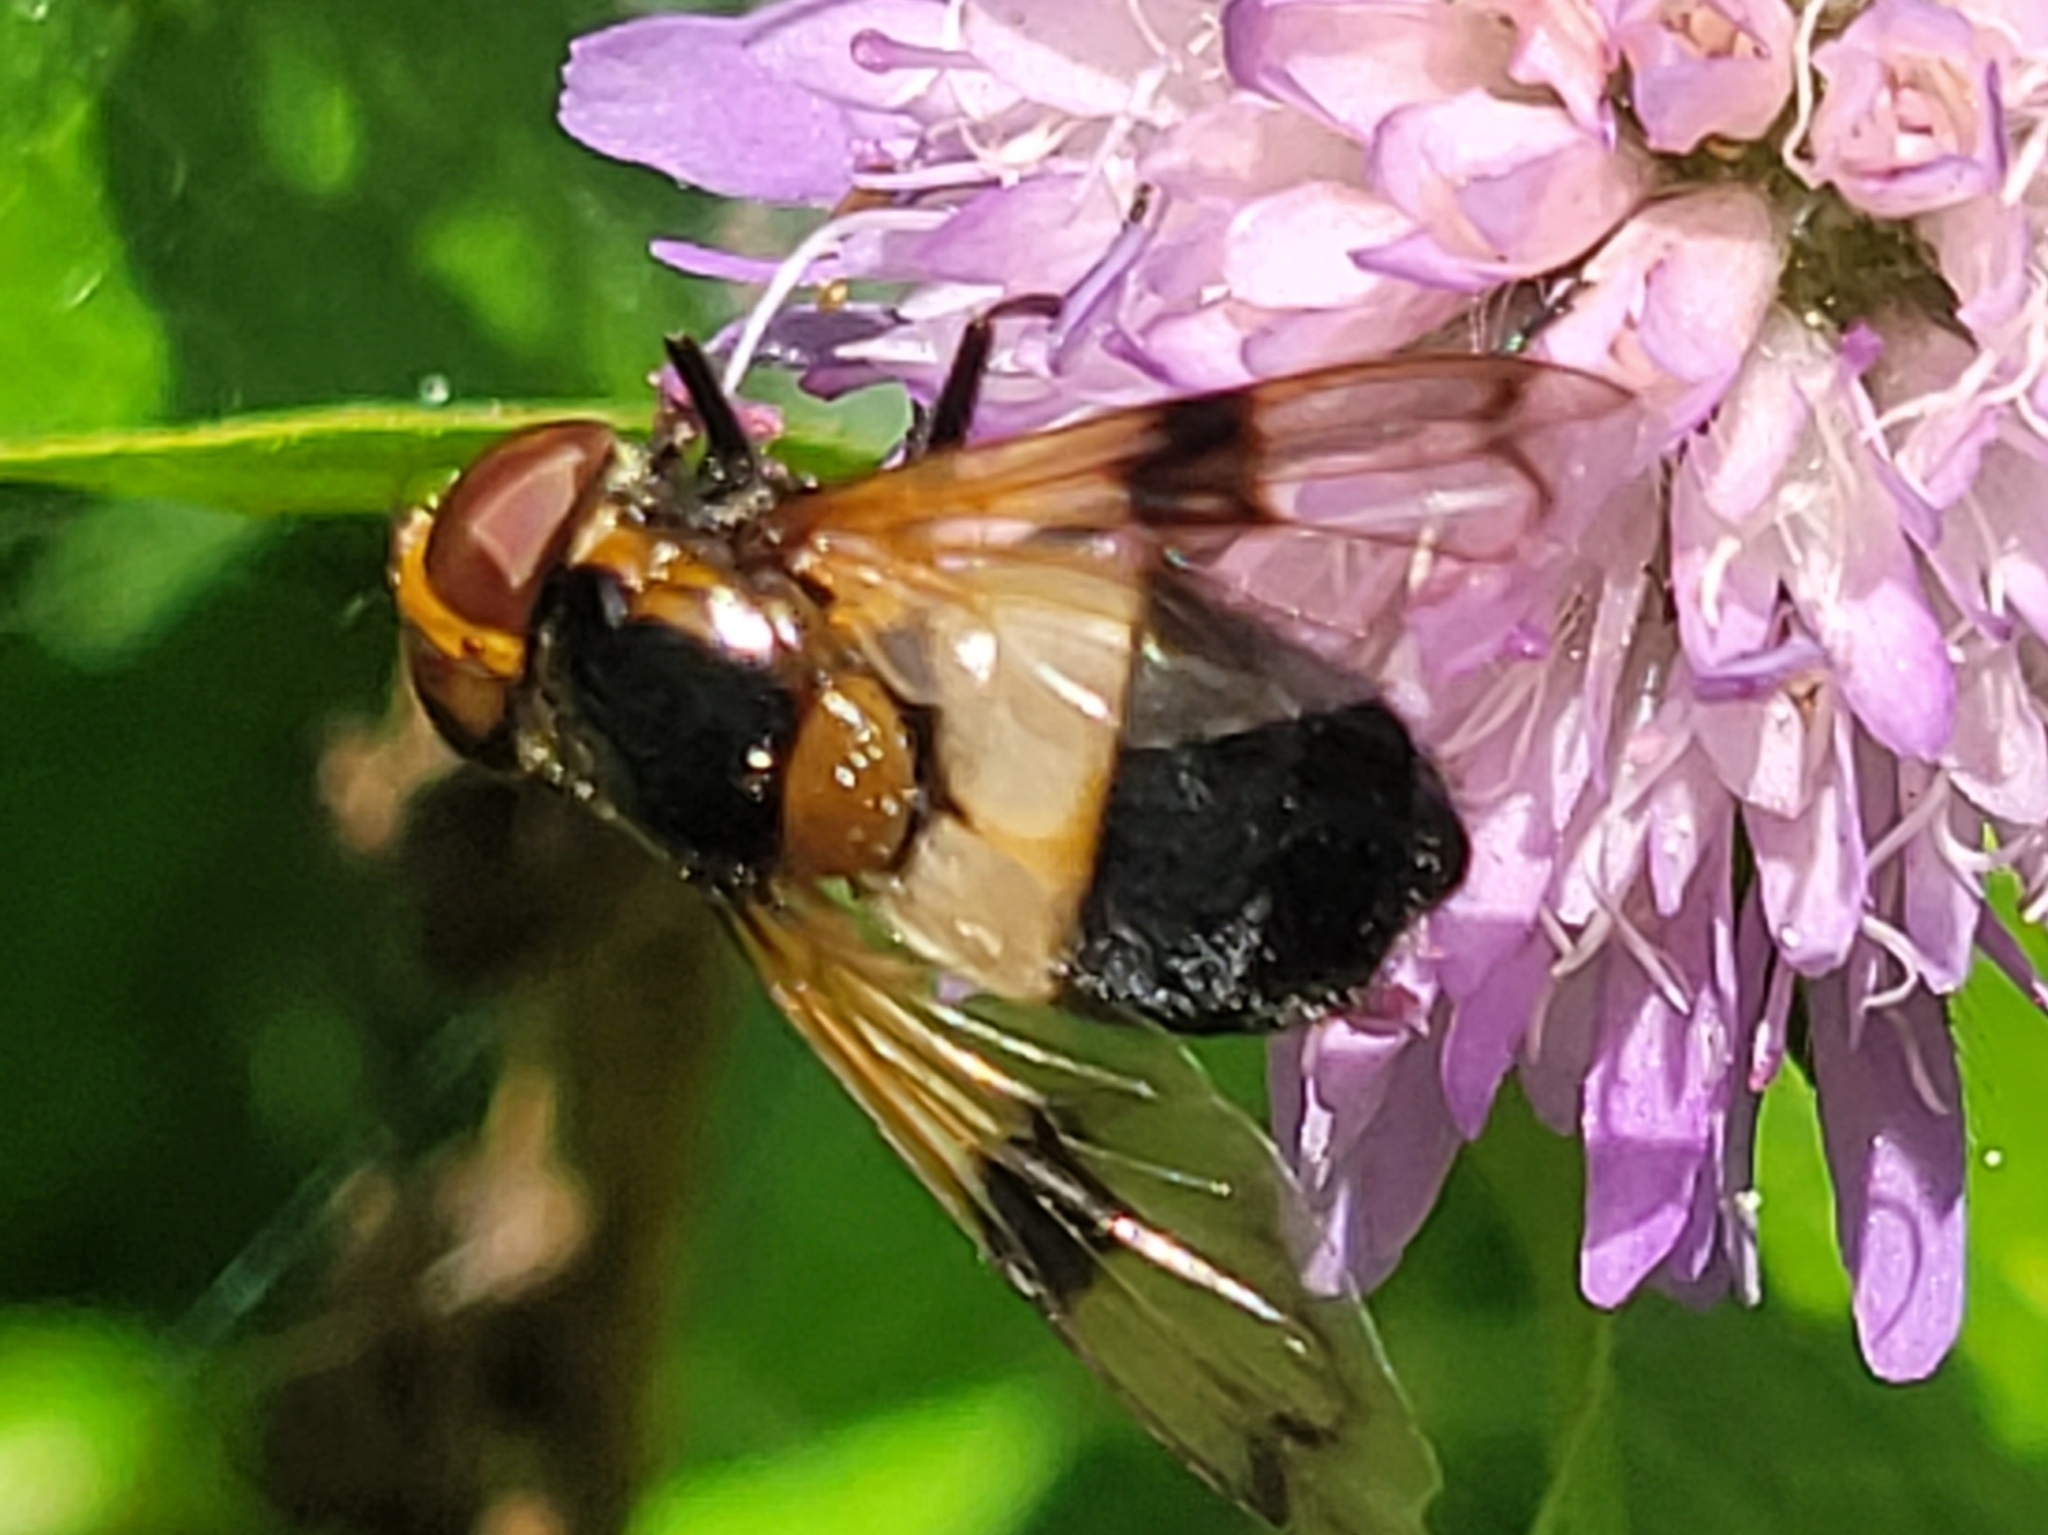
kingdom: Animalia
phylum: Arthropoda
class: Insecta
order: Diptera
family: Syrphidae
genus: Volucella
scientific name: Volucella pellucens
